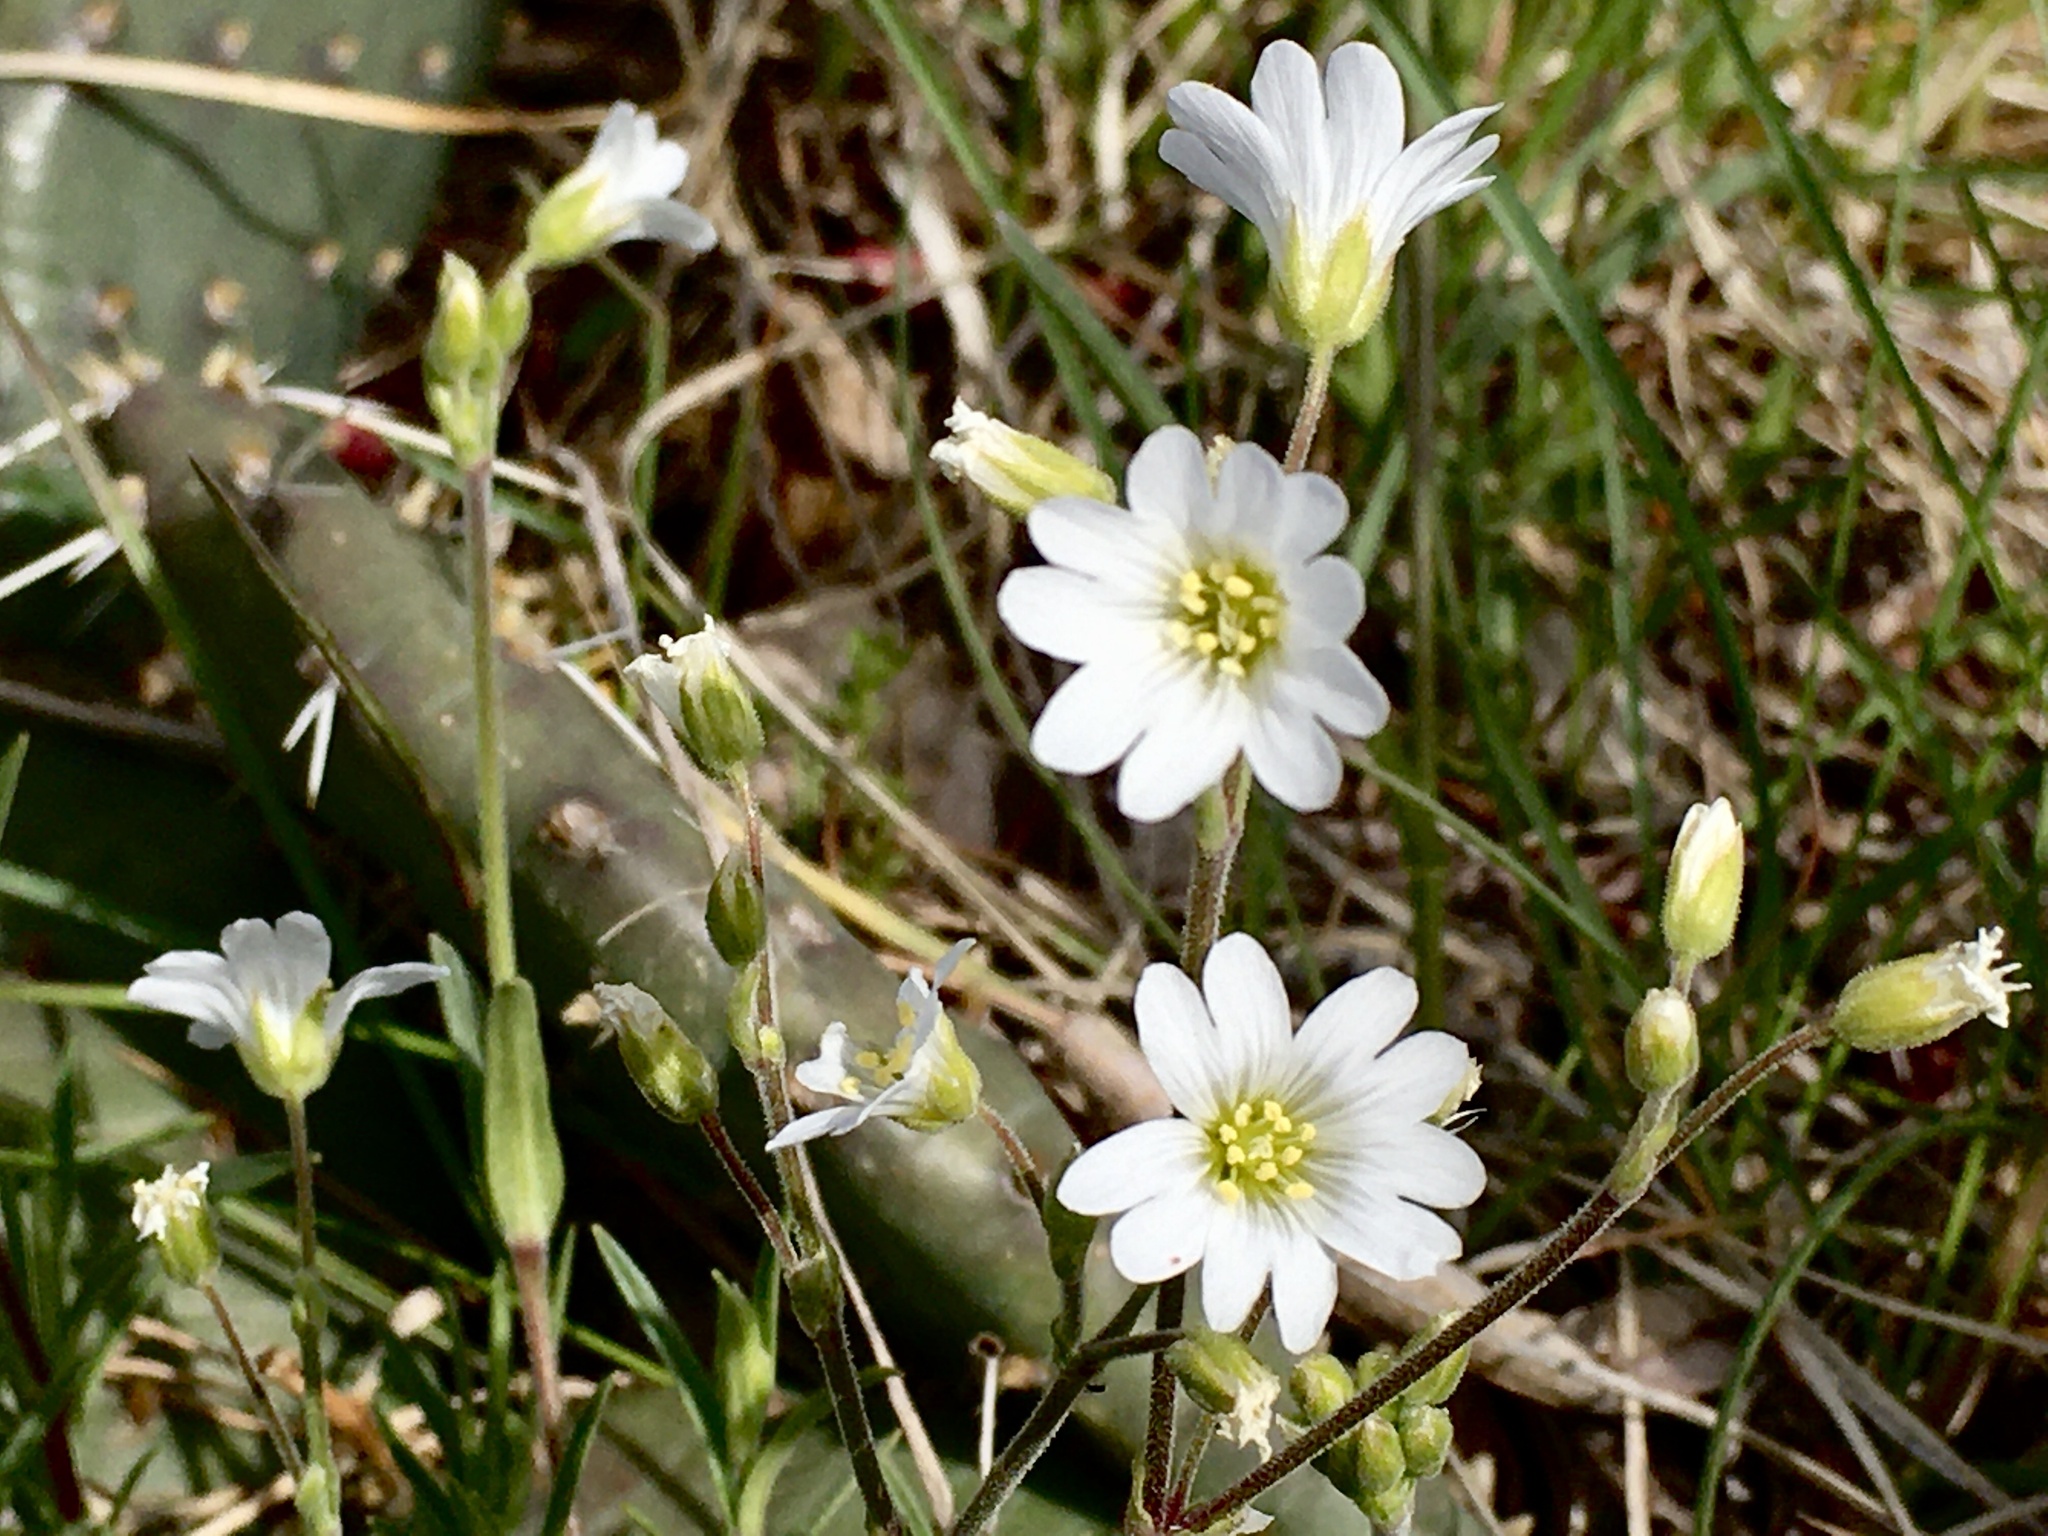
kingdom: Plantae
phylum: Tracheophyta
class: Magnoliopsida
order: Caryophyllales
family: Caryophyllaceae
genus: Cerastium
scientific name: Cerastium arvense
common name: Field mouse-ear
